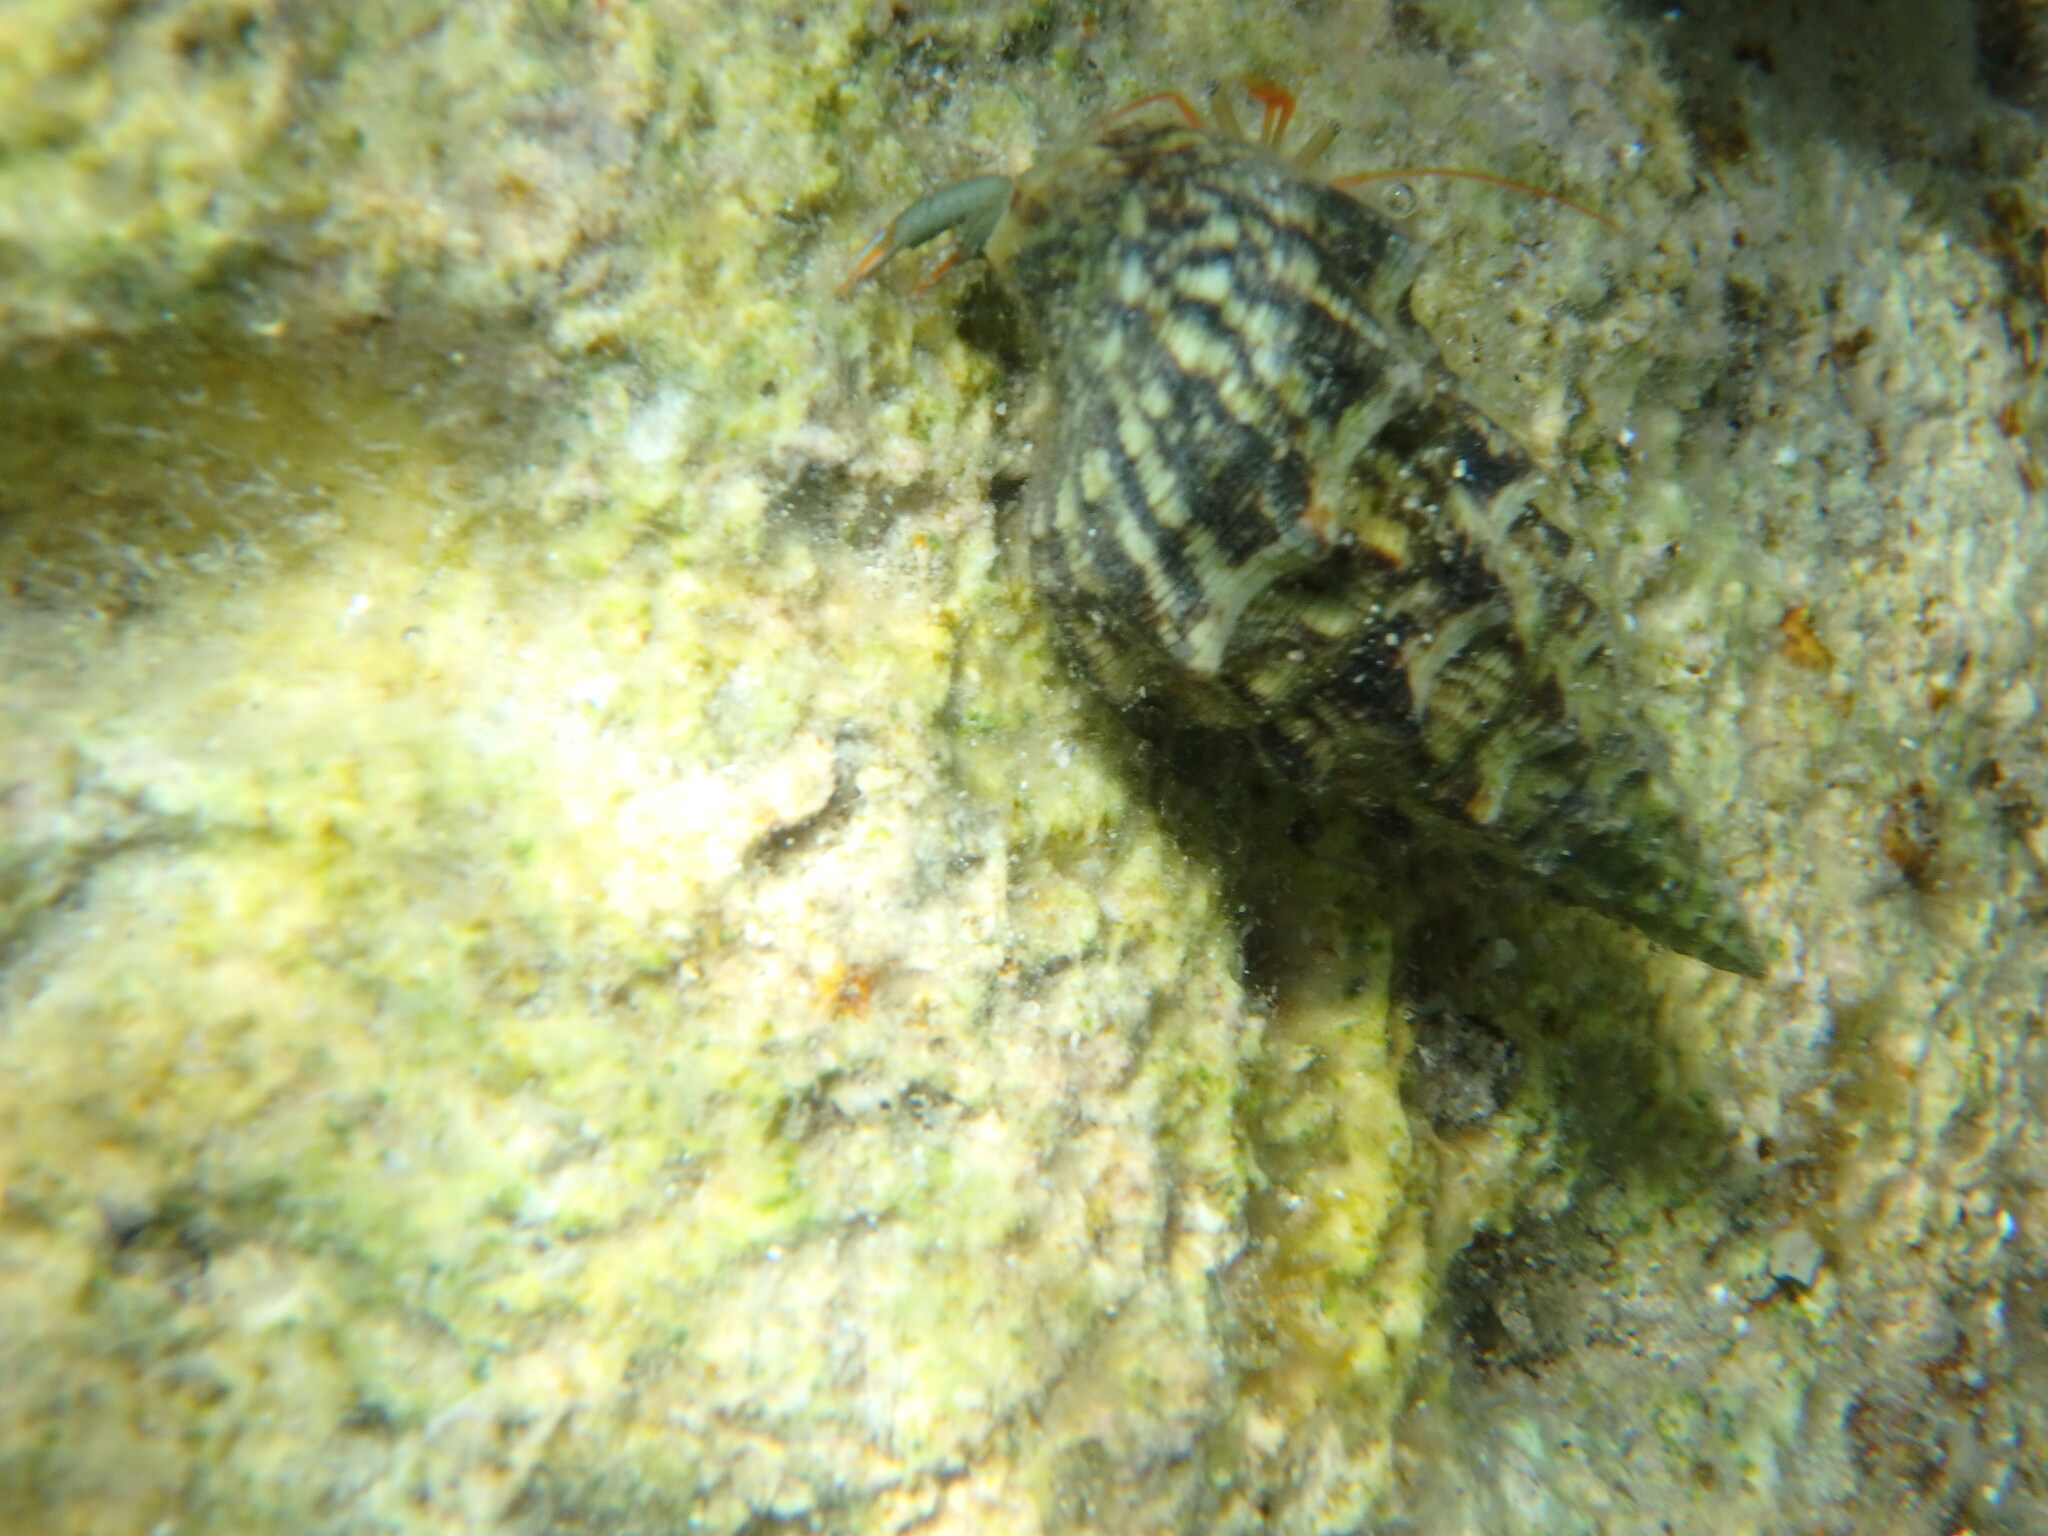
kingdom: Animalia
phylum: Arthropoda
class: Malacostraca
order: Decapoda
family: Diogenidae
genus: Clibanarius
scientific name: Clibanarius erythropus
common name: Hermit crab
